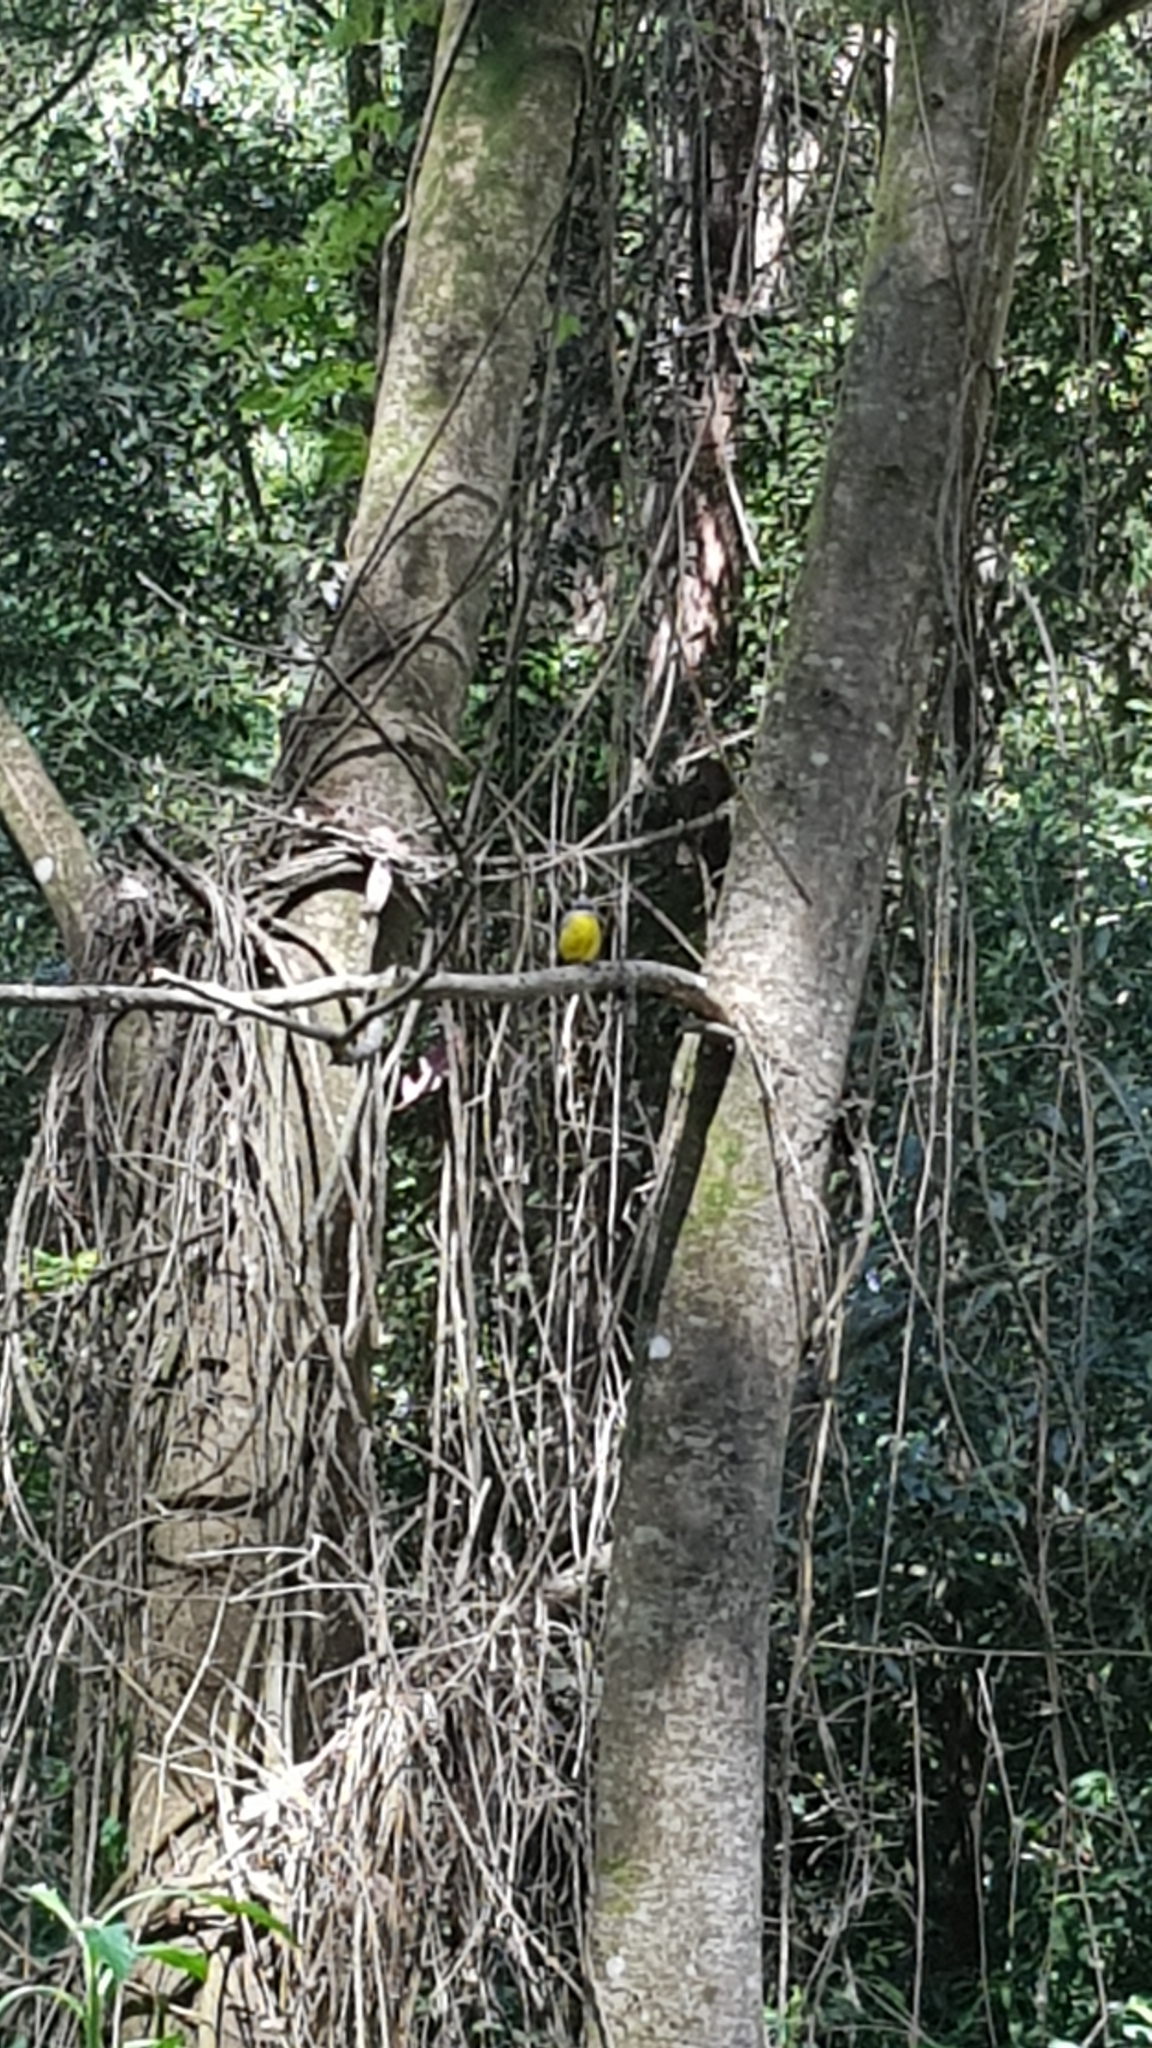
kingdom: Animalia
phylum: Chordata
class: Aves
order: Passeriformes
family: Petroicidae
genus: Eopsaltria
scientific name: Eopsaltria australis
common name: Eastern yellow robin
